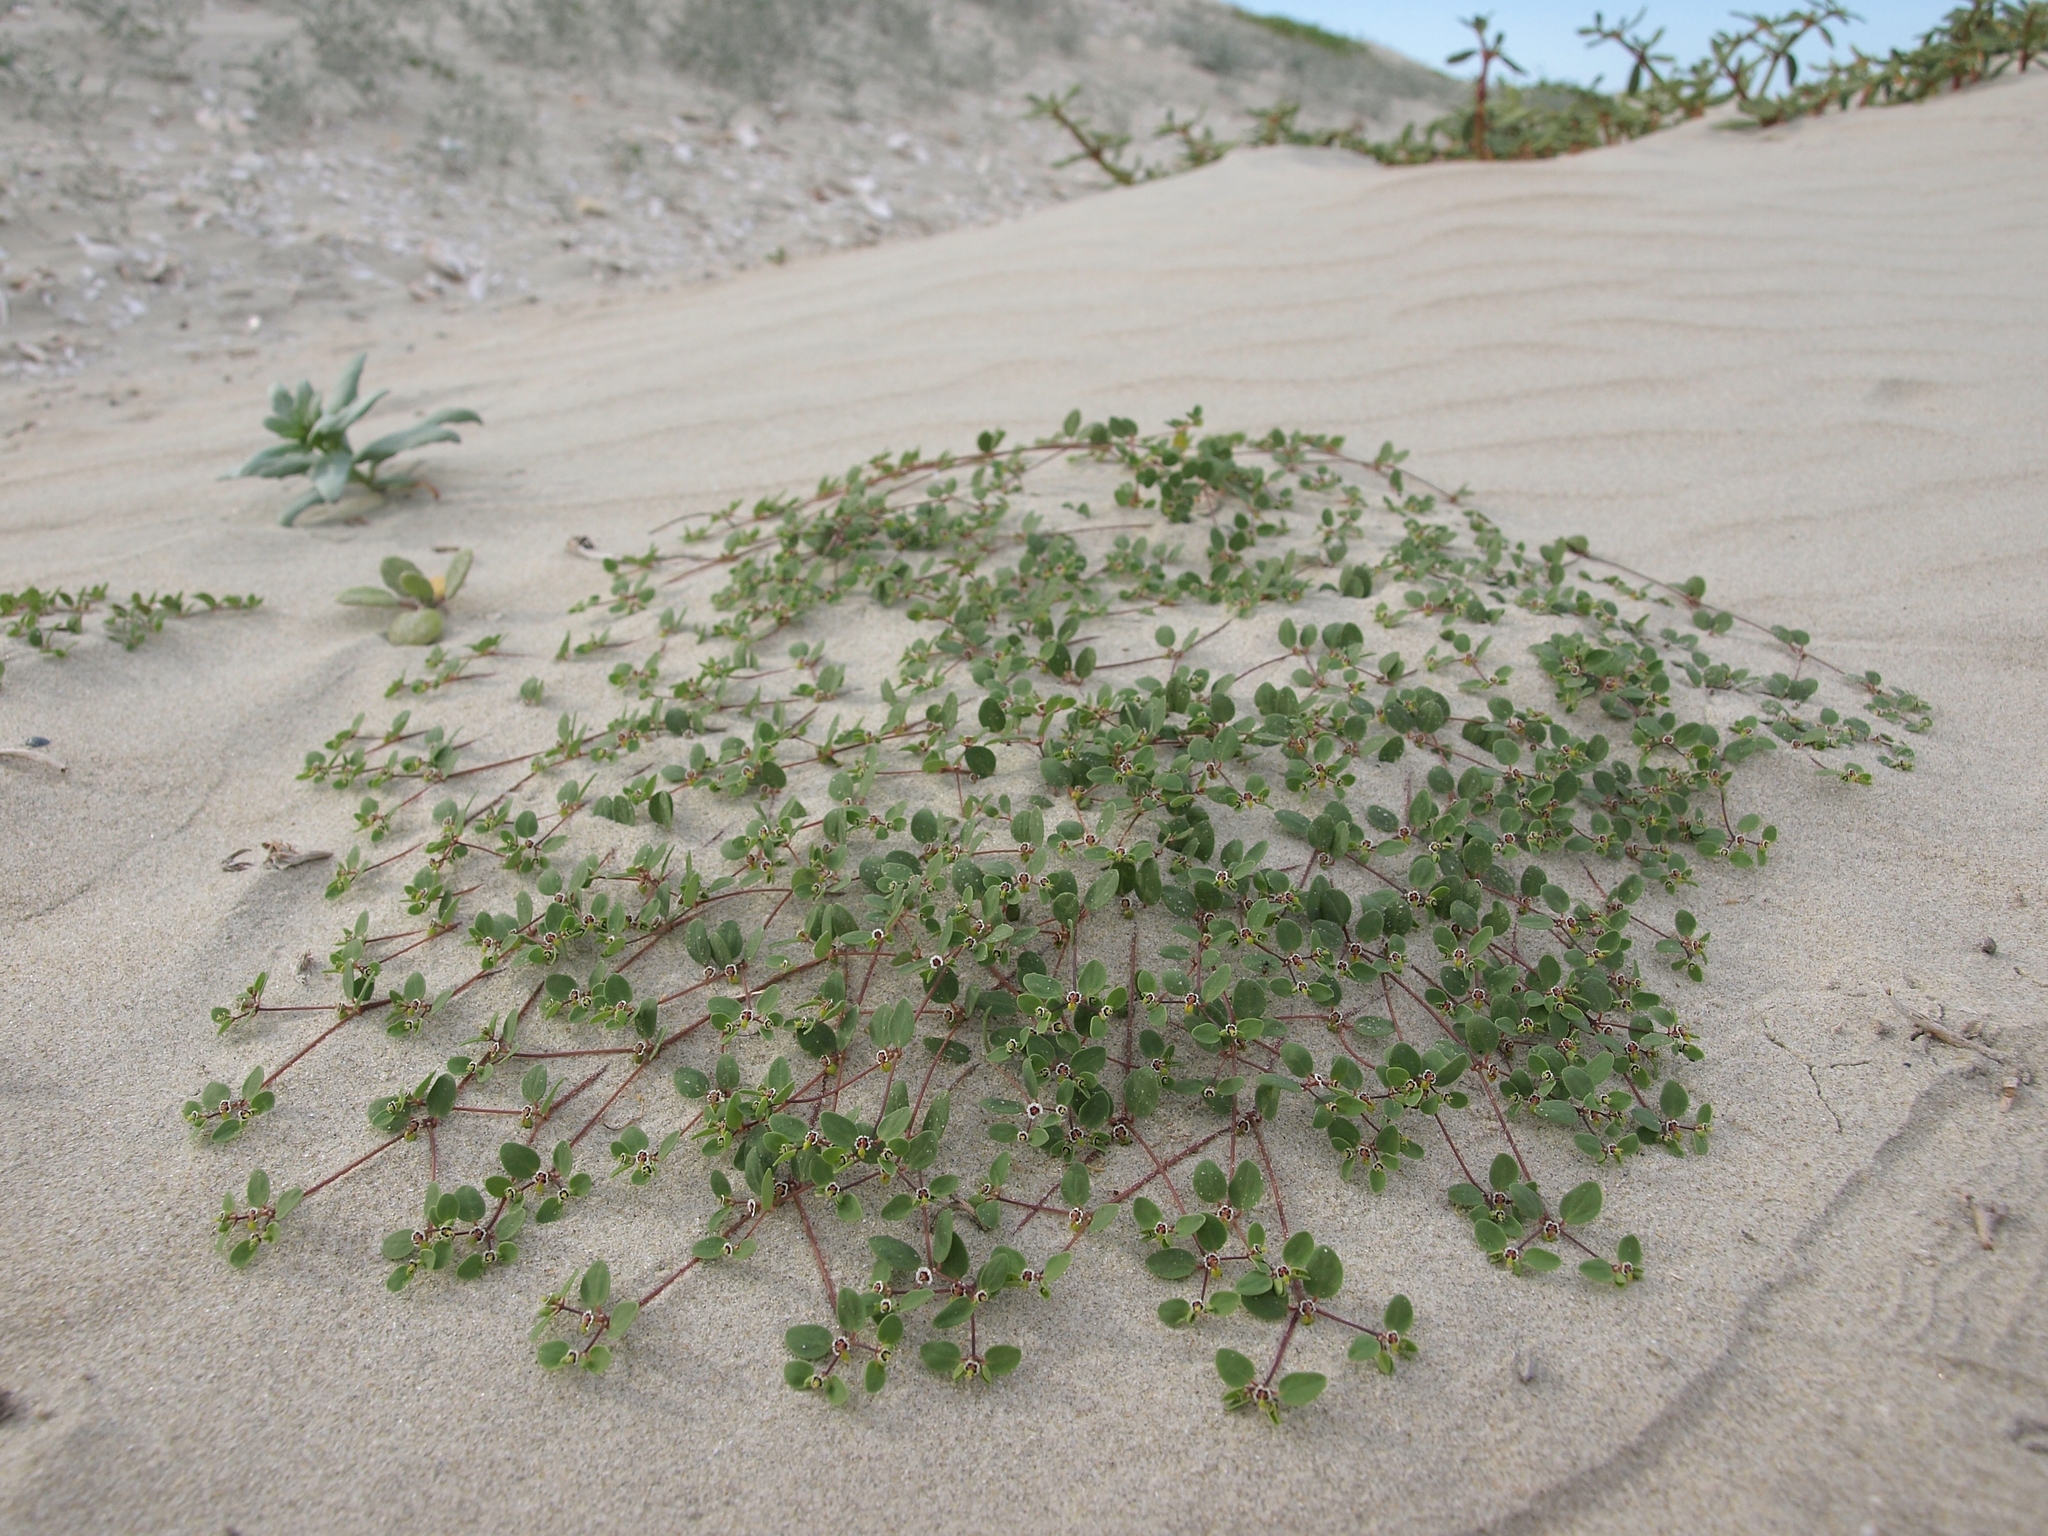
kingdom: Plantae
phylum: Tracheophyta
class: Magnoliopsida
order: Malpighiales
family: Euphorbiaceae
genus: Euphorbia
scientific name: Euphorbia vizcainensis
